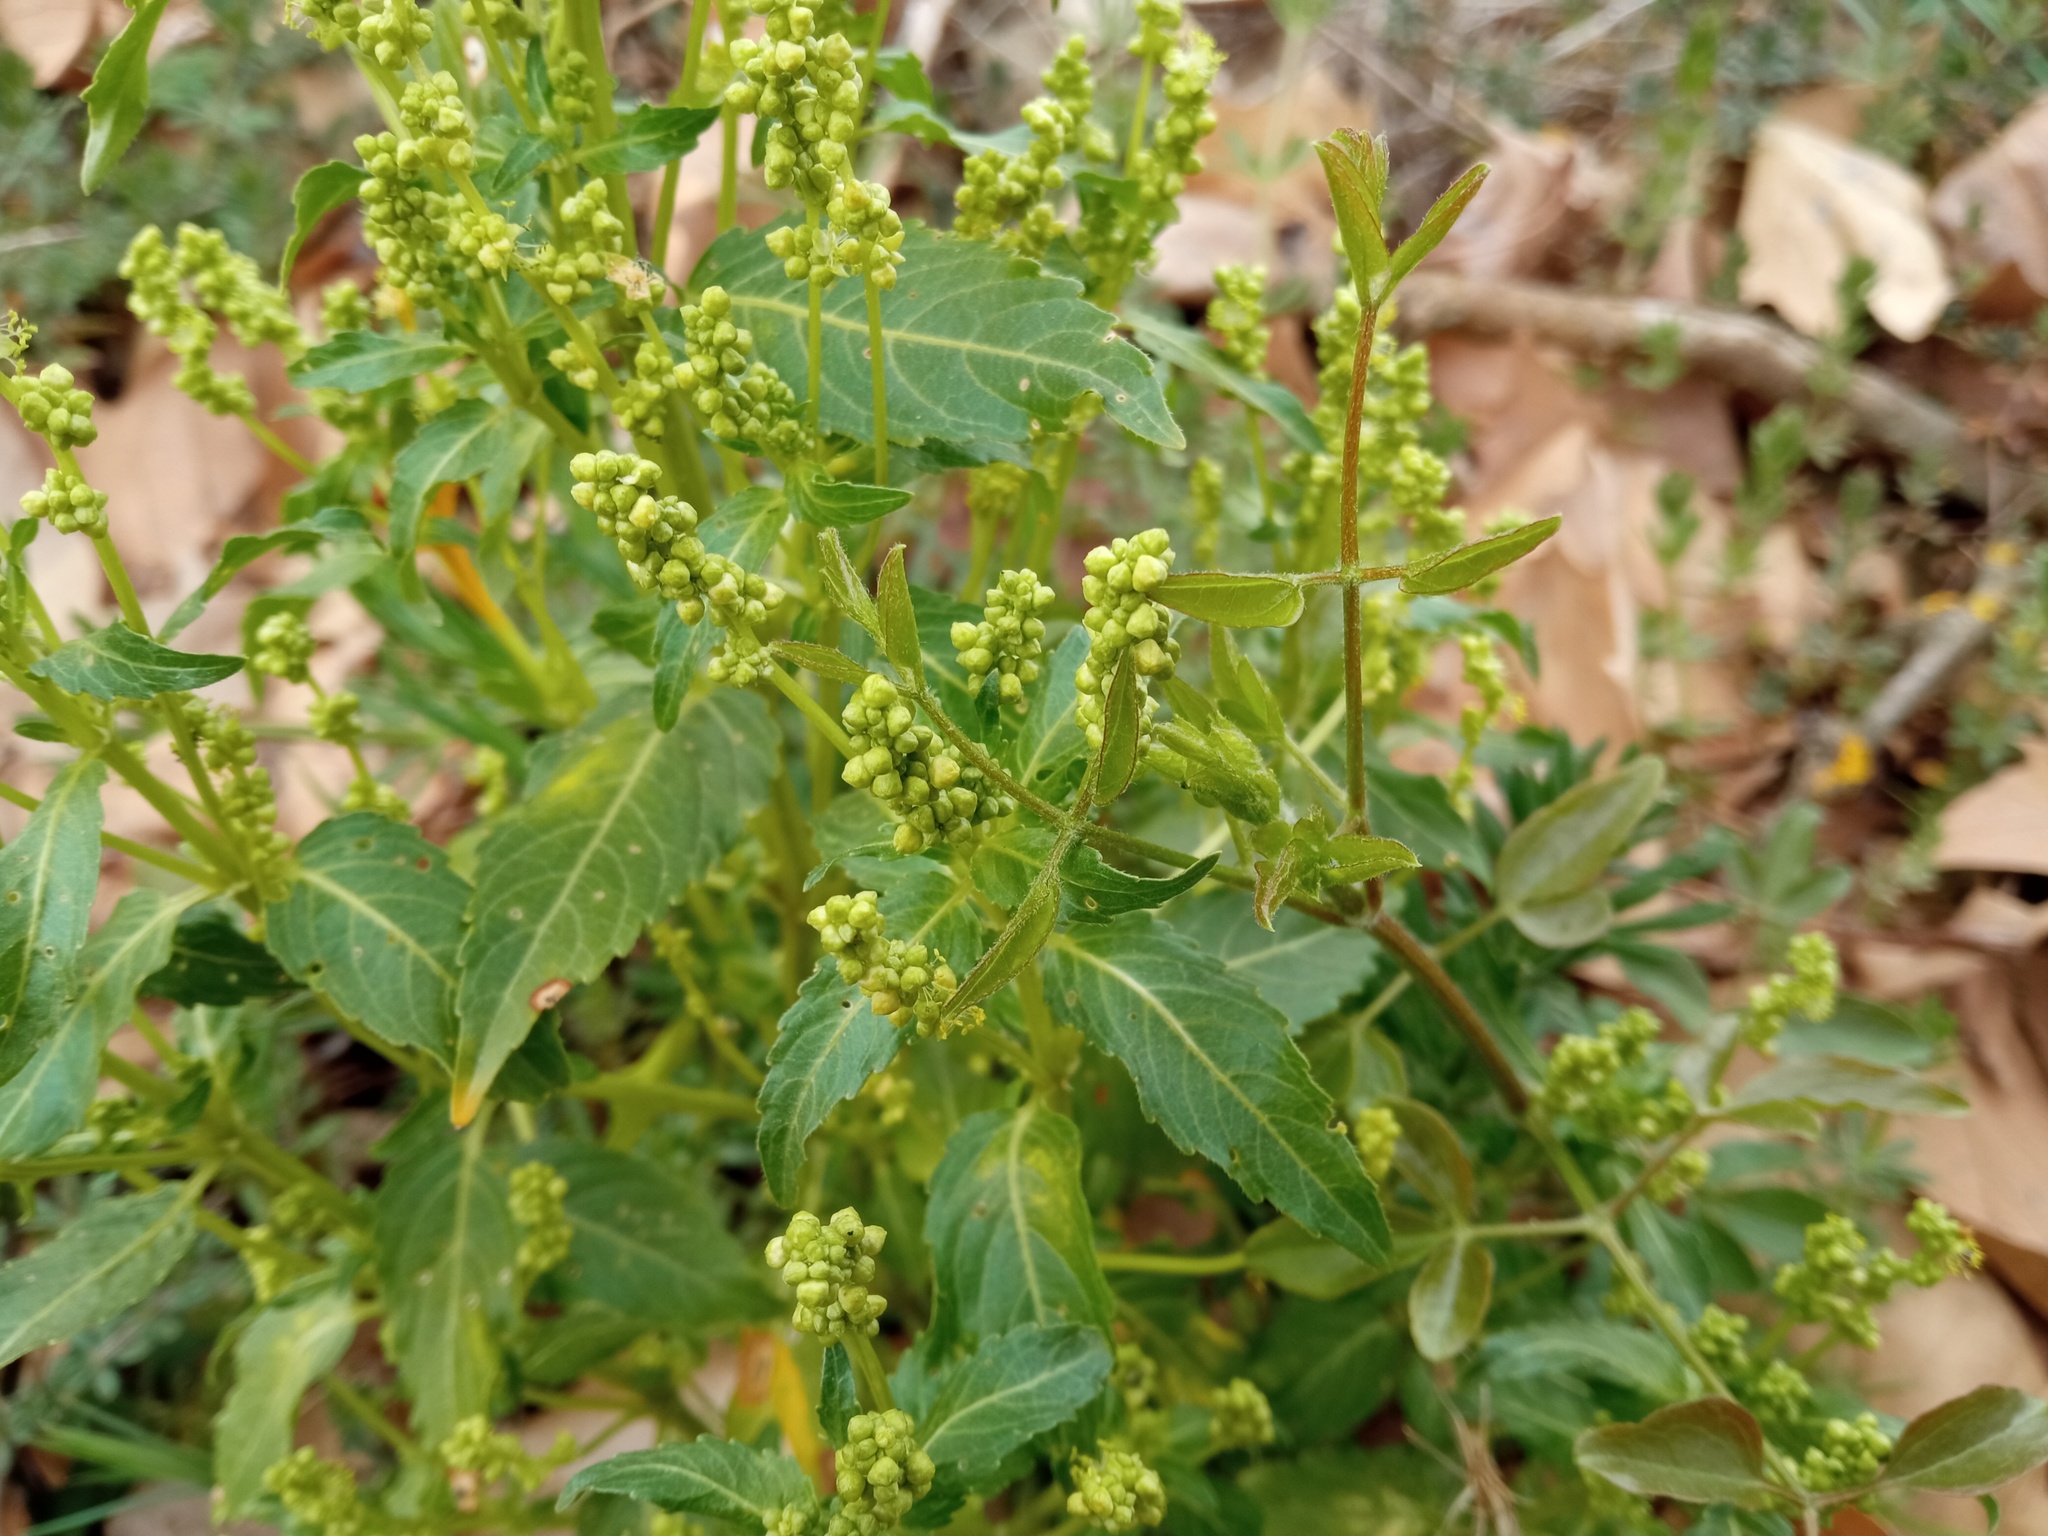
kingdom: Plantae
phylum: Tracheophyta
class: Magnoliopsida
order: Malpighiales
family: Euphorbiaceae
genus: Mercurialis
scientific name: Mercurialis annua
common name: Annual mercury
